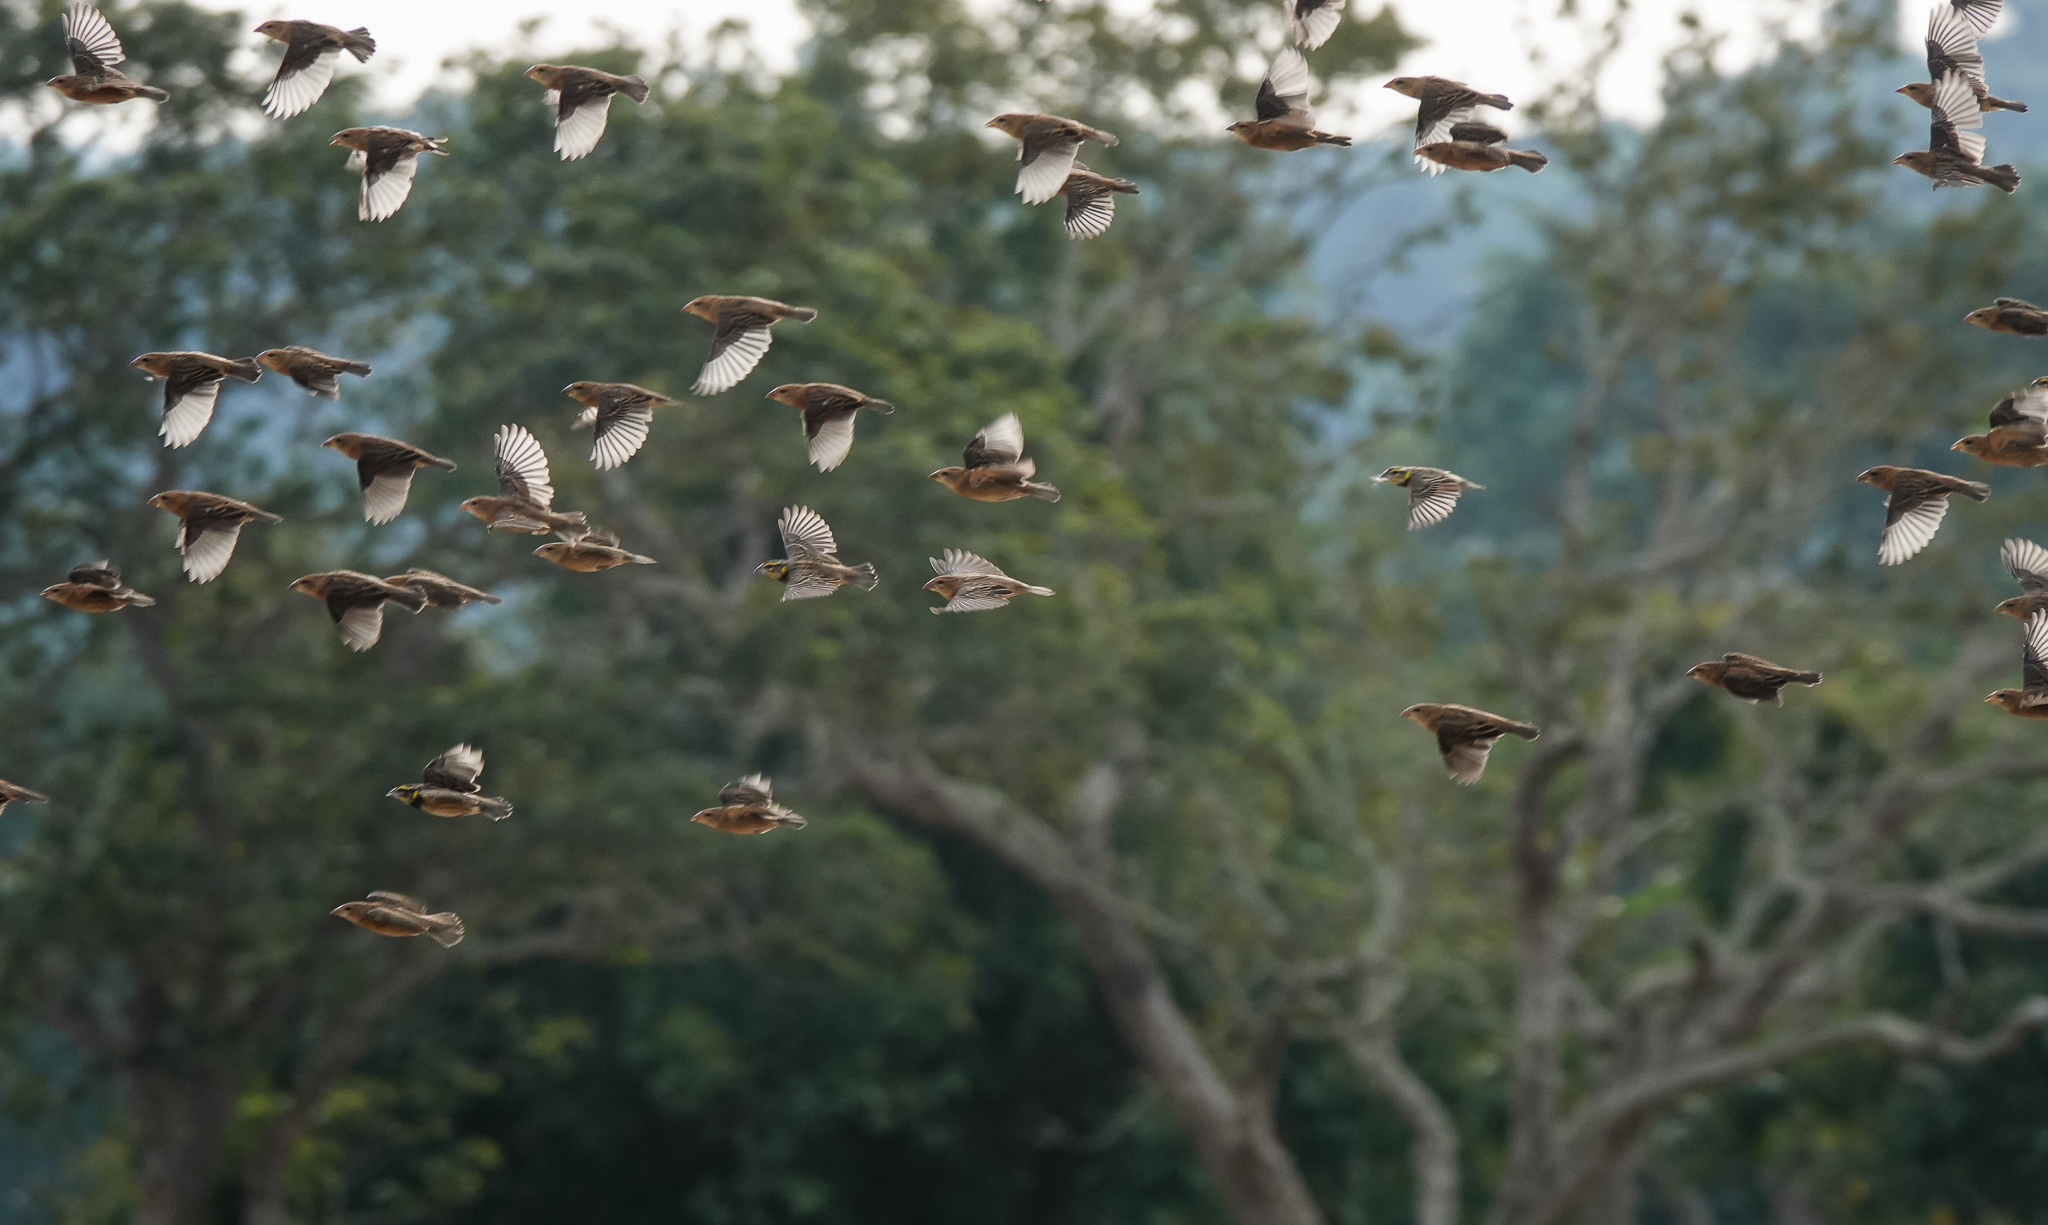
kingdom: Animalia
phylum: Chordata
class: Aves
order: Passeriformes
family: Ploceidae
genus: Ploceus
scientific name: Ploceus philippinus
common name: Baya weaver
